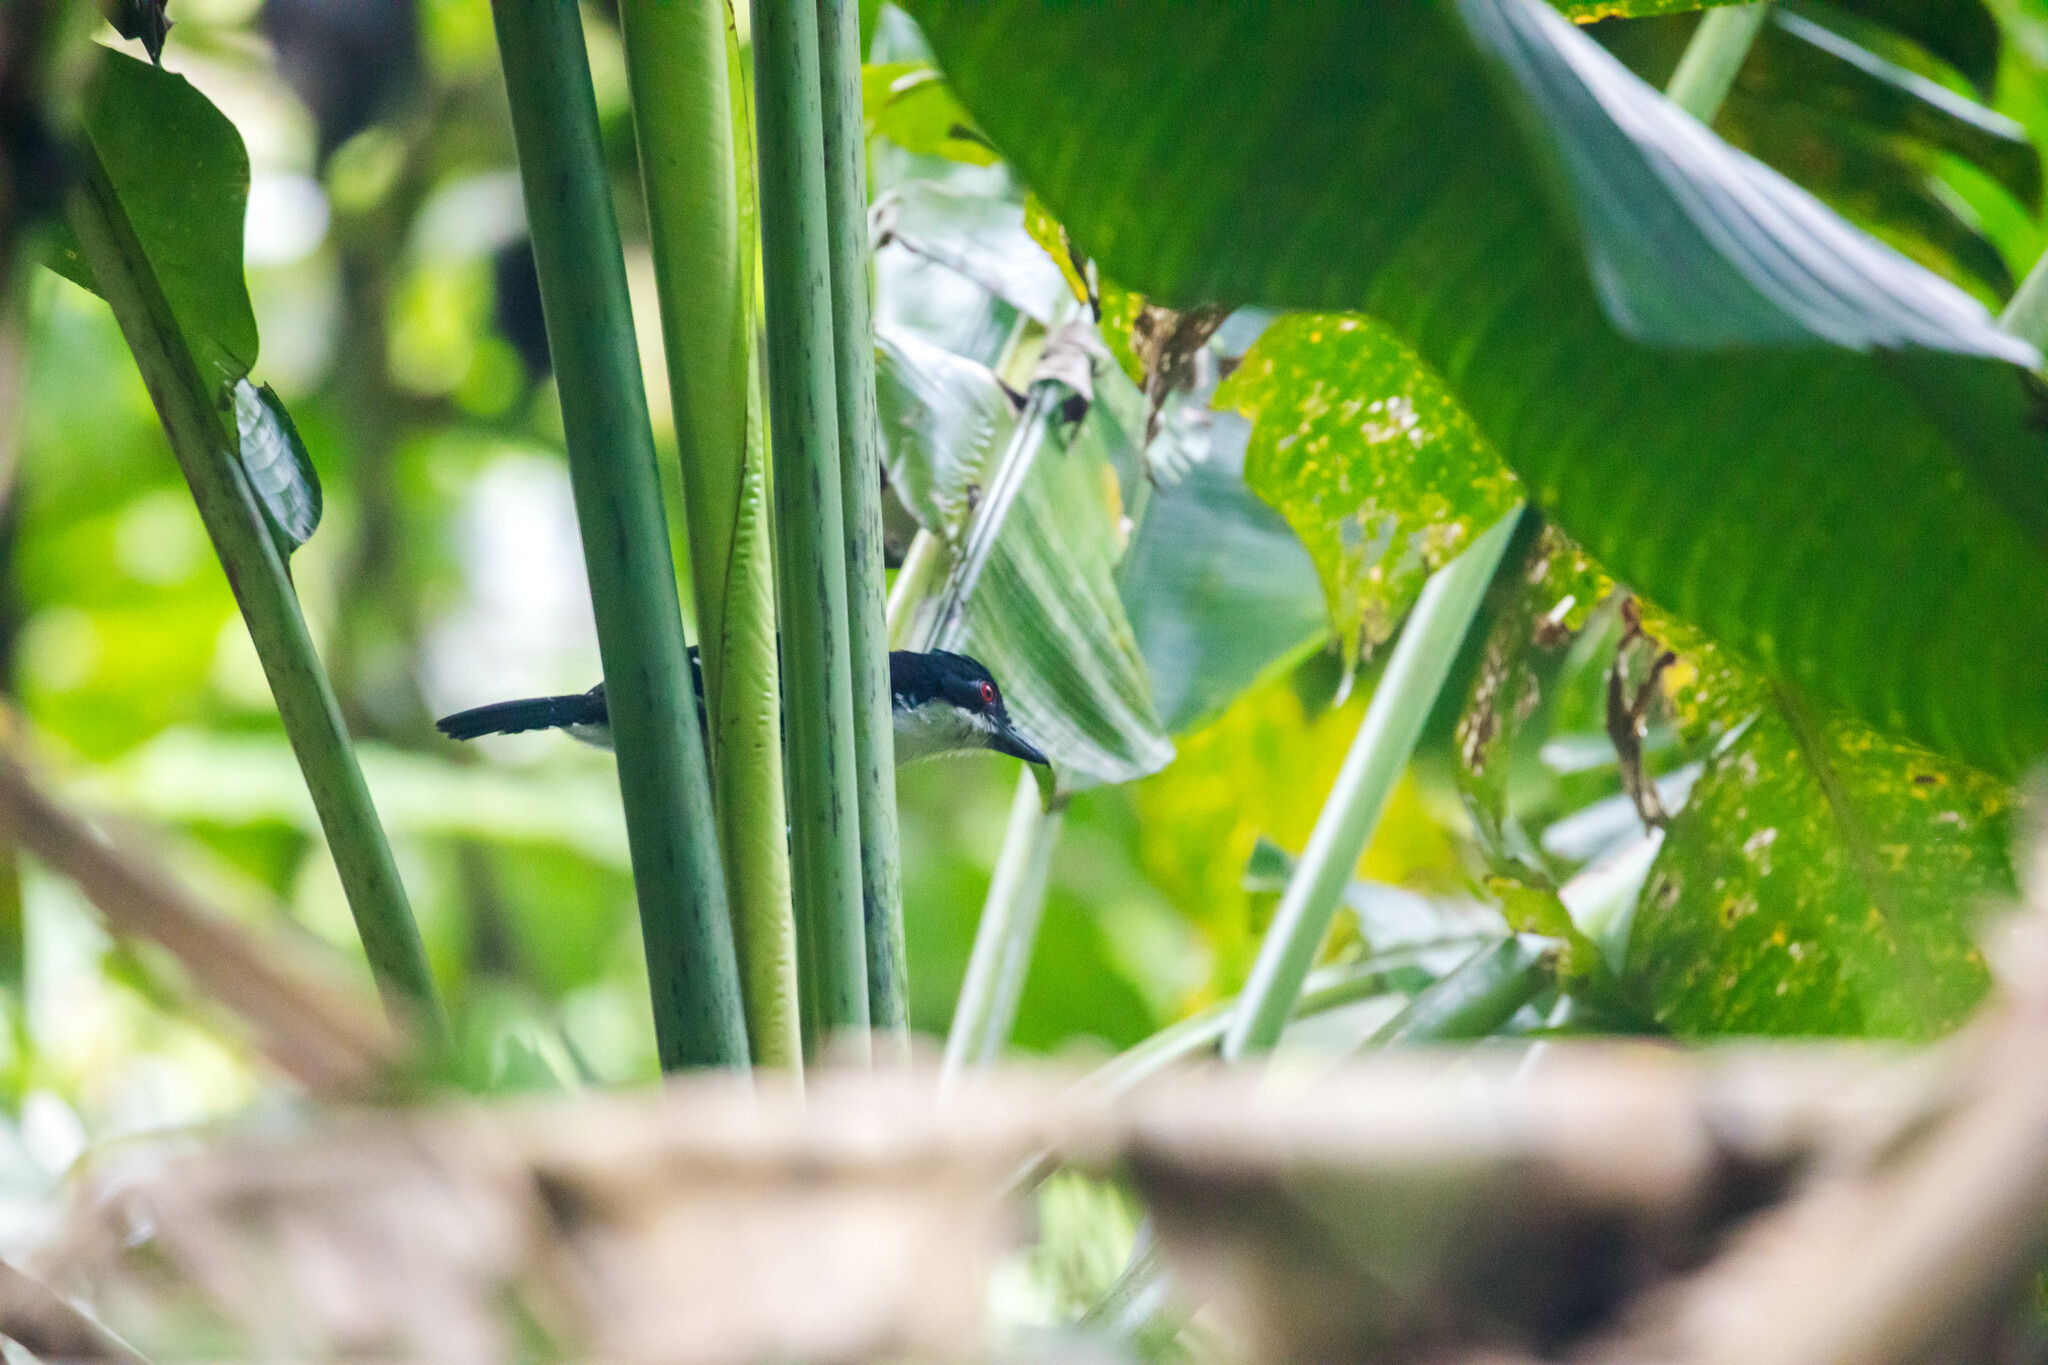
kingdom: Animalia
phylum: Chordata
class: Aves
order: Passeriformes
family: Thamnophilidae
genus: Taraba
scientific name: Taraba major
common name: Great antshrike
